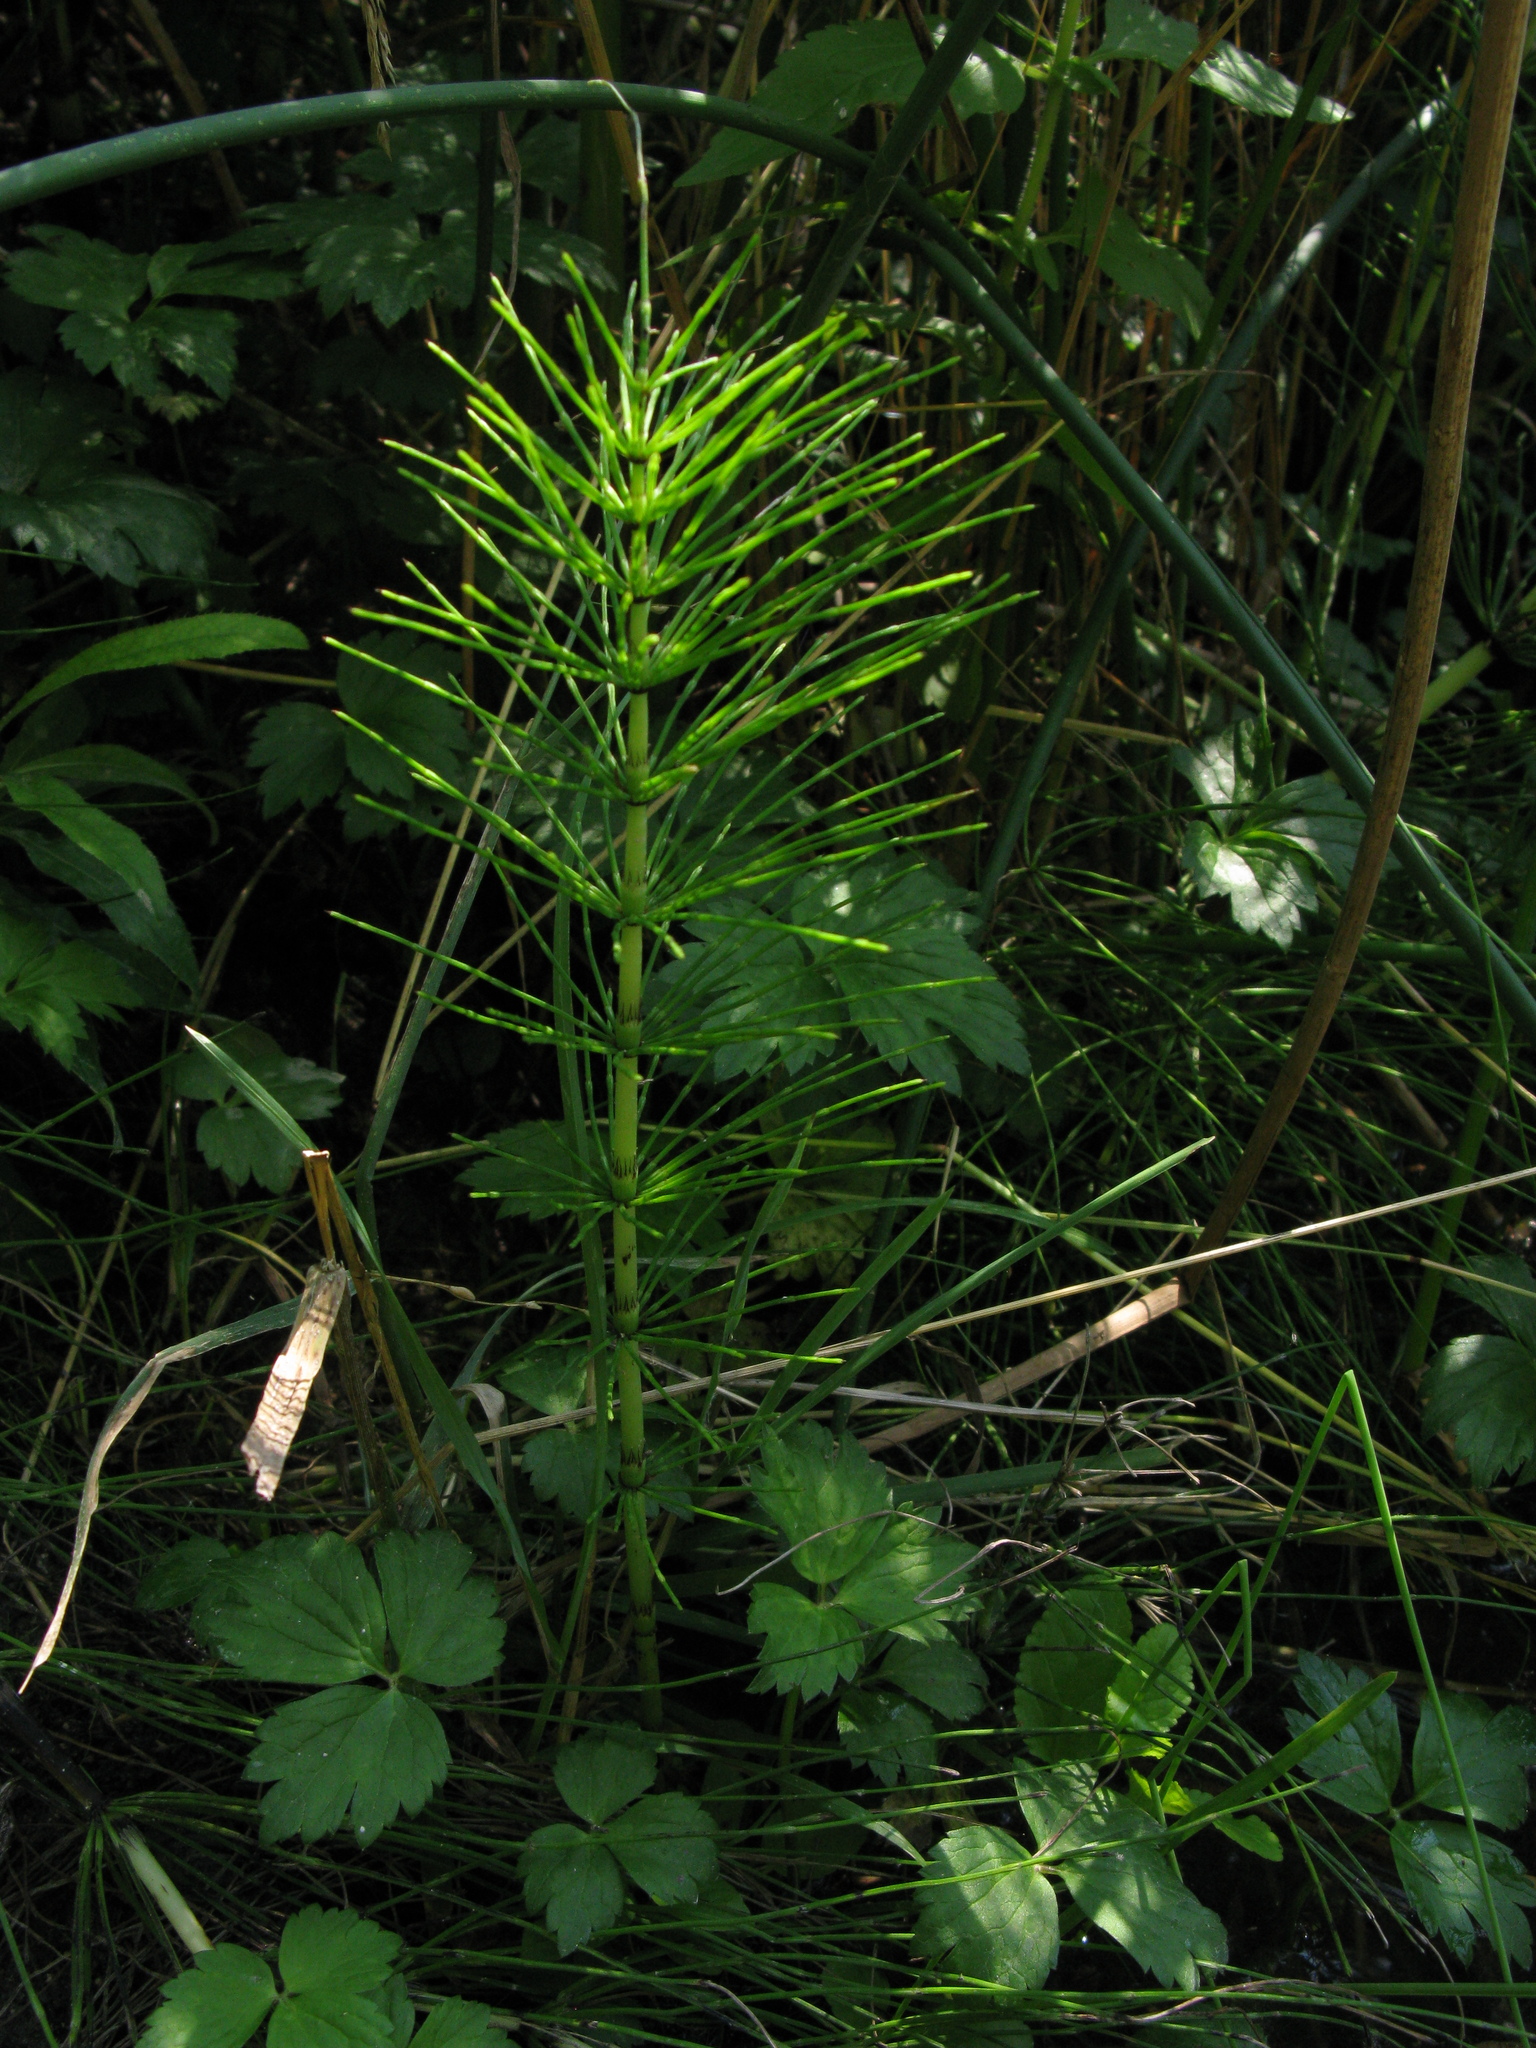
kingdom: Plantae
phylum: Tracheophyta
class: Polypodiopsida
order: Equisetales
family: Equisetaceae
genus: Equisetum
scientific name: Equisetum telmateia
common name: Great horsetail
